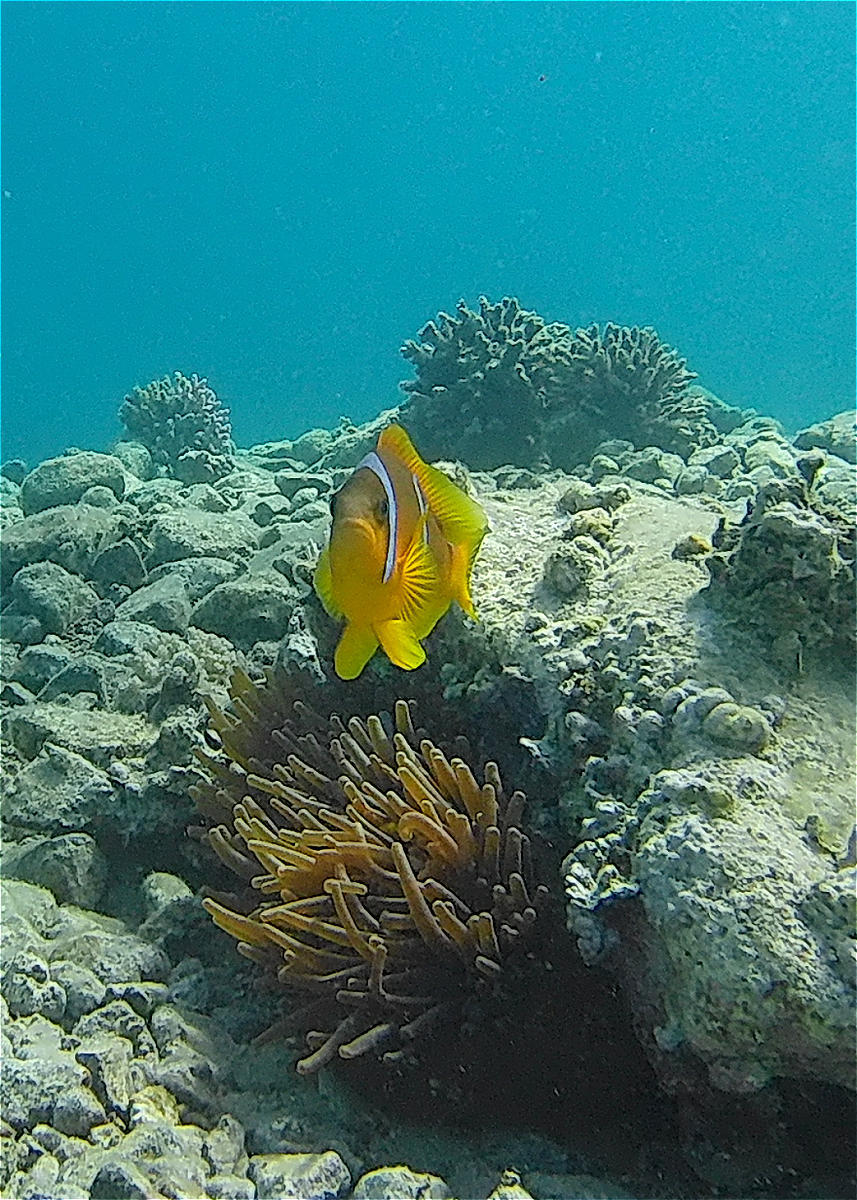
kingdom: Animalia
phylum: Cnidaria
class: Anthozoa
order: Actiniaria
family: Actiniidae
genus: Entacmaea
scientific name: Entacmaea quadricolor
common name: Bulb tentacle sea anemone
